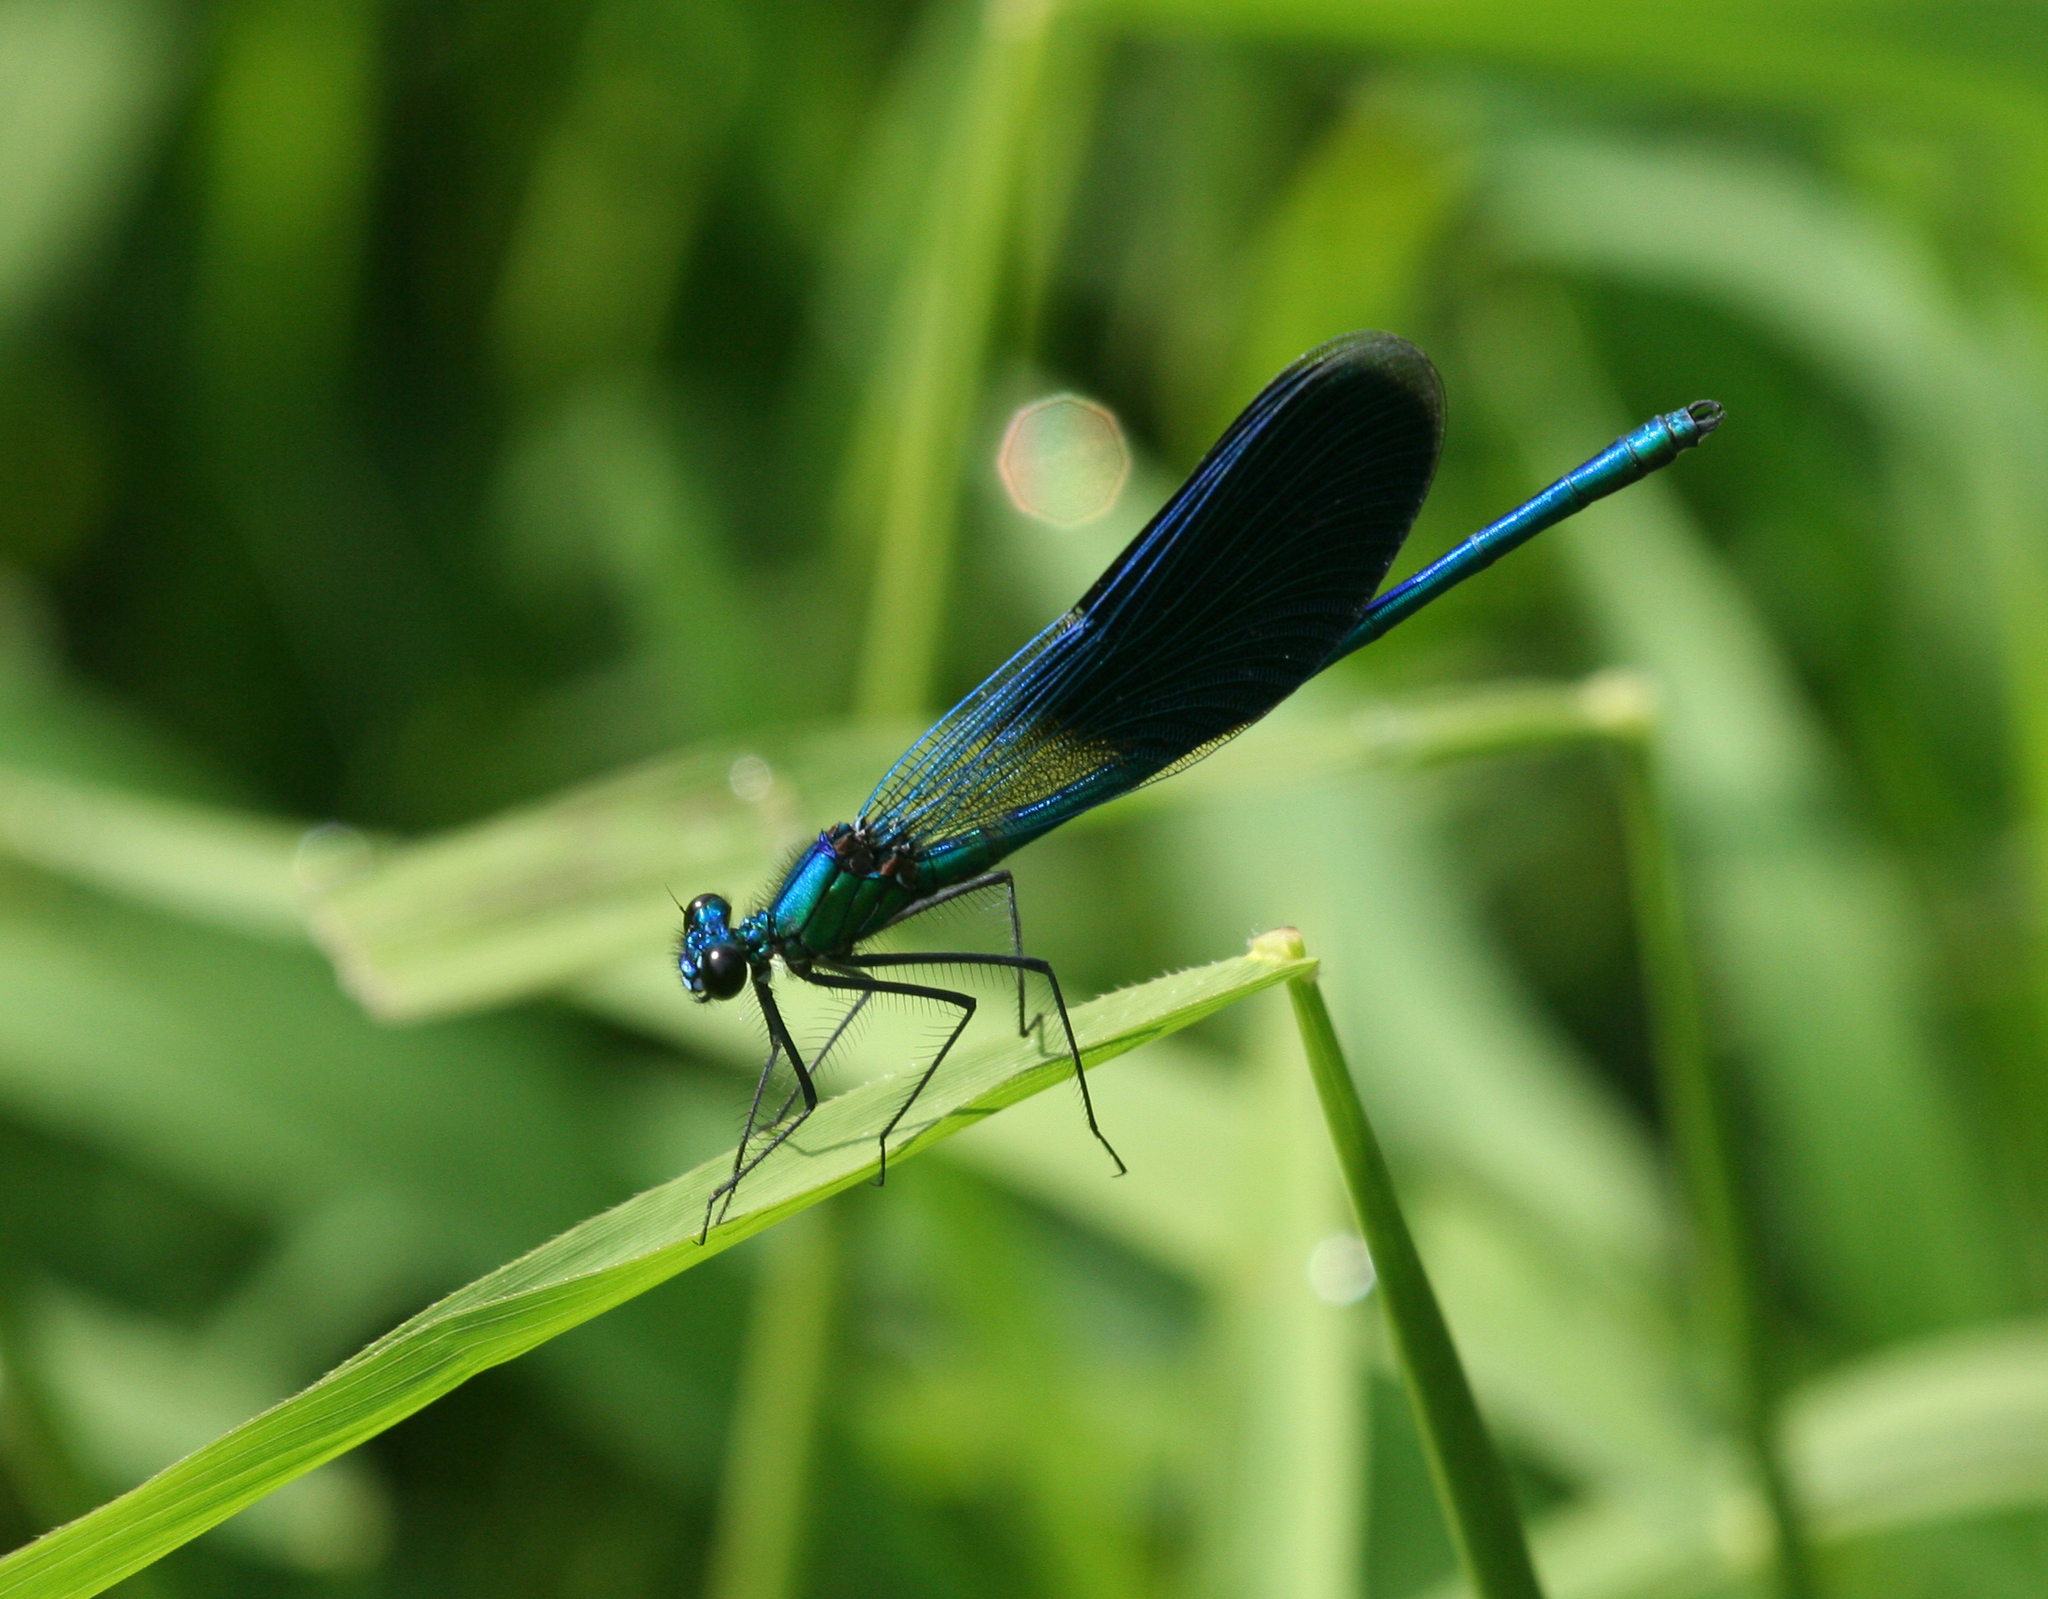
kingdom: Animalia
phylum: Arthropoda
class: Insecta
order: Odonata
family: Calopterygidae
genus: Calopteryx
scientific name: Calopteryx splendens
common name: Banded demoiselle
